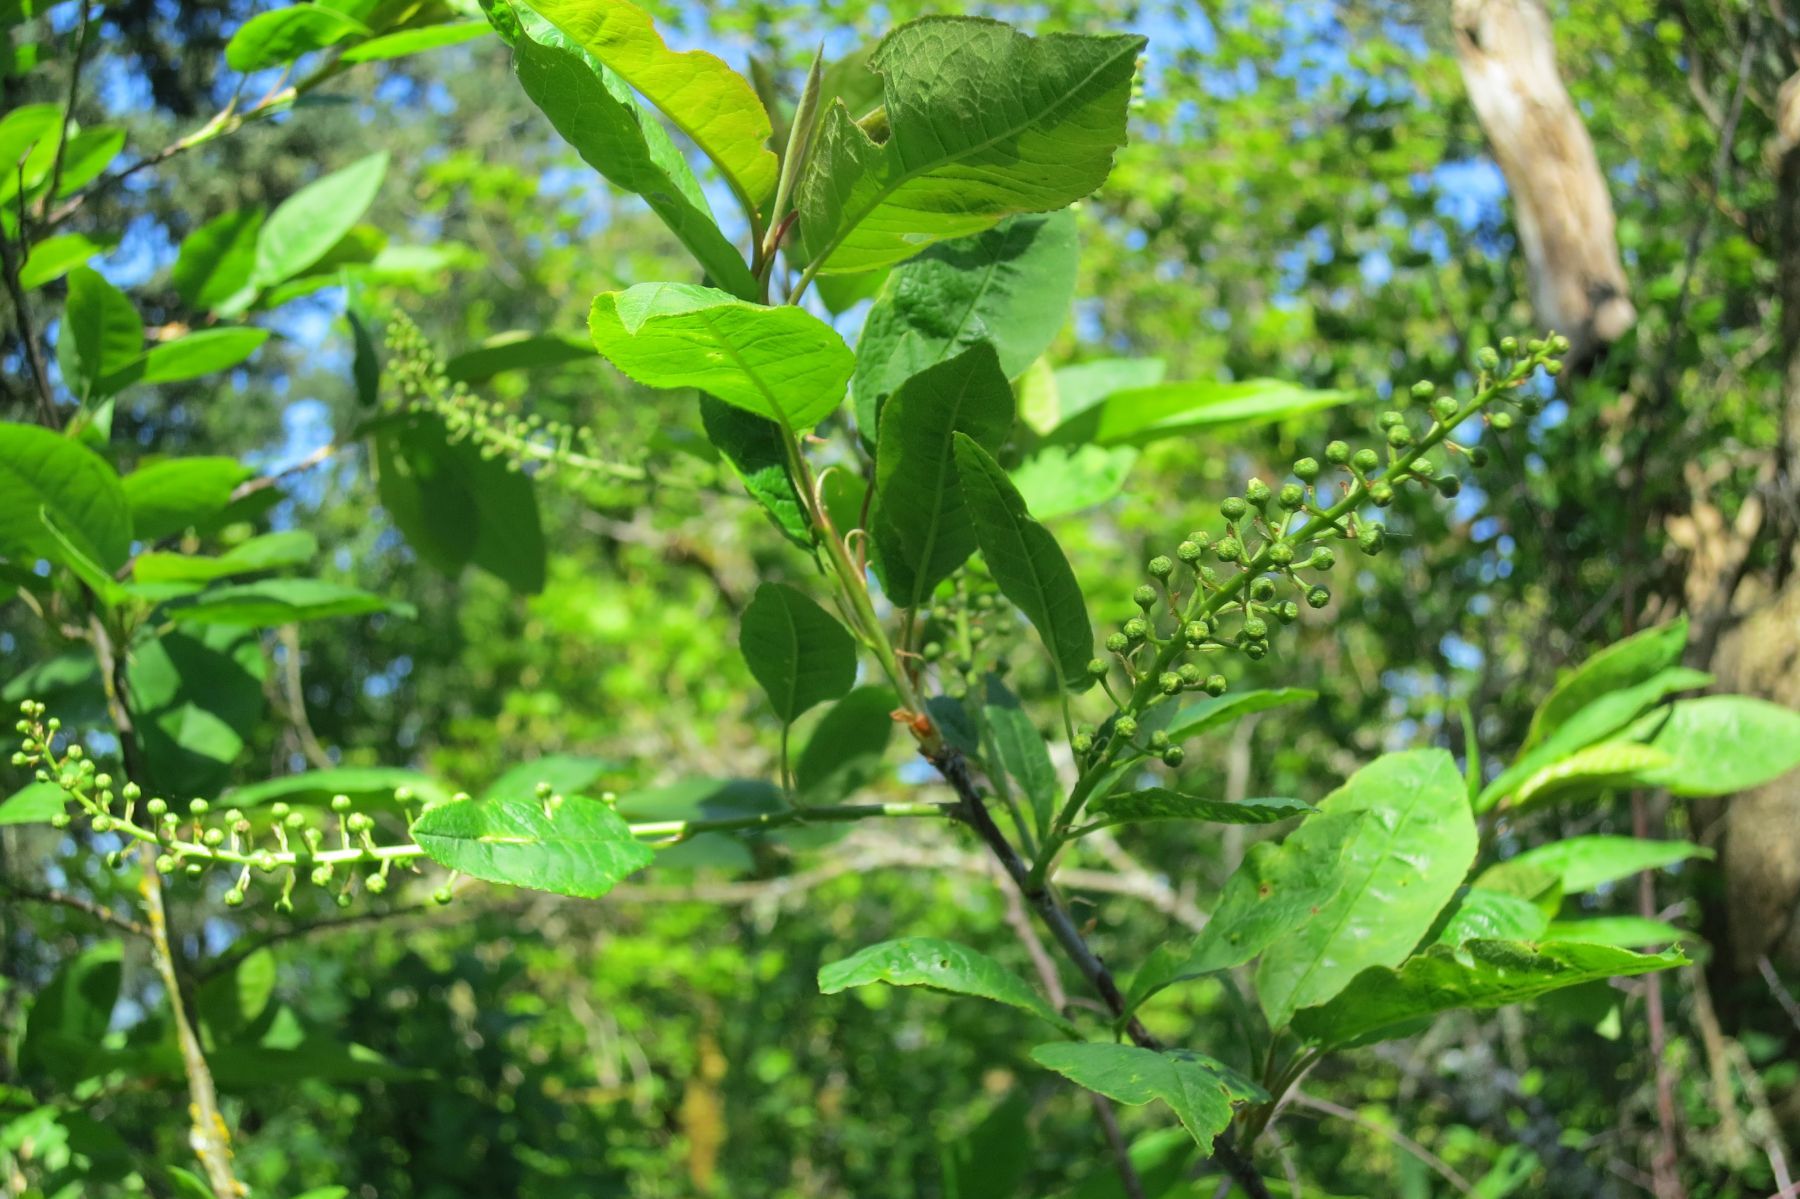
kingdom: Plantae
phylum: Tracheophyta
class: Magnoliopsida
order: Rosales
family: Rosaceae
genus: Prunus
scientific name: Prunus virginiana
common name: Chokecherry
